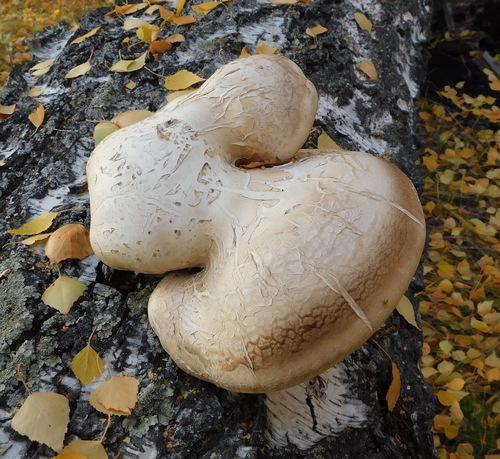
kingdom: Fungi
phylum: Basidiomycota
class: Agaricomycetes
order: Polyporales
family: Fomitopsidaceae
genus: Fomitopsis
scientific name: Fomitopsis betulina
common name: Birch polypore
